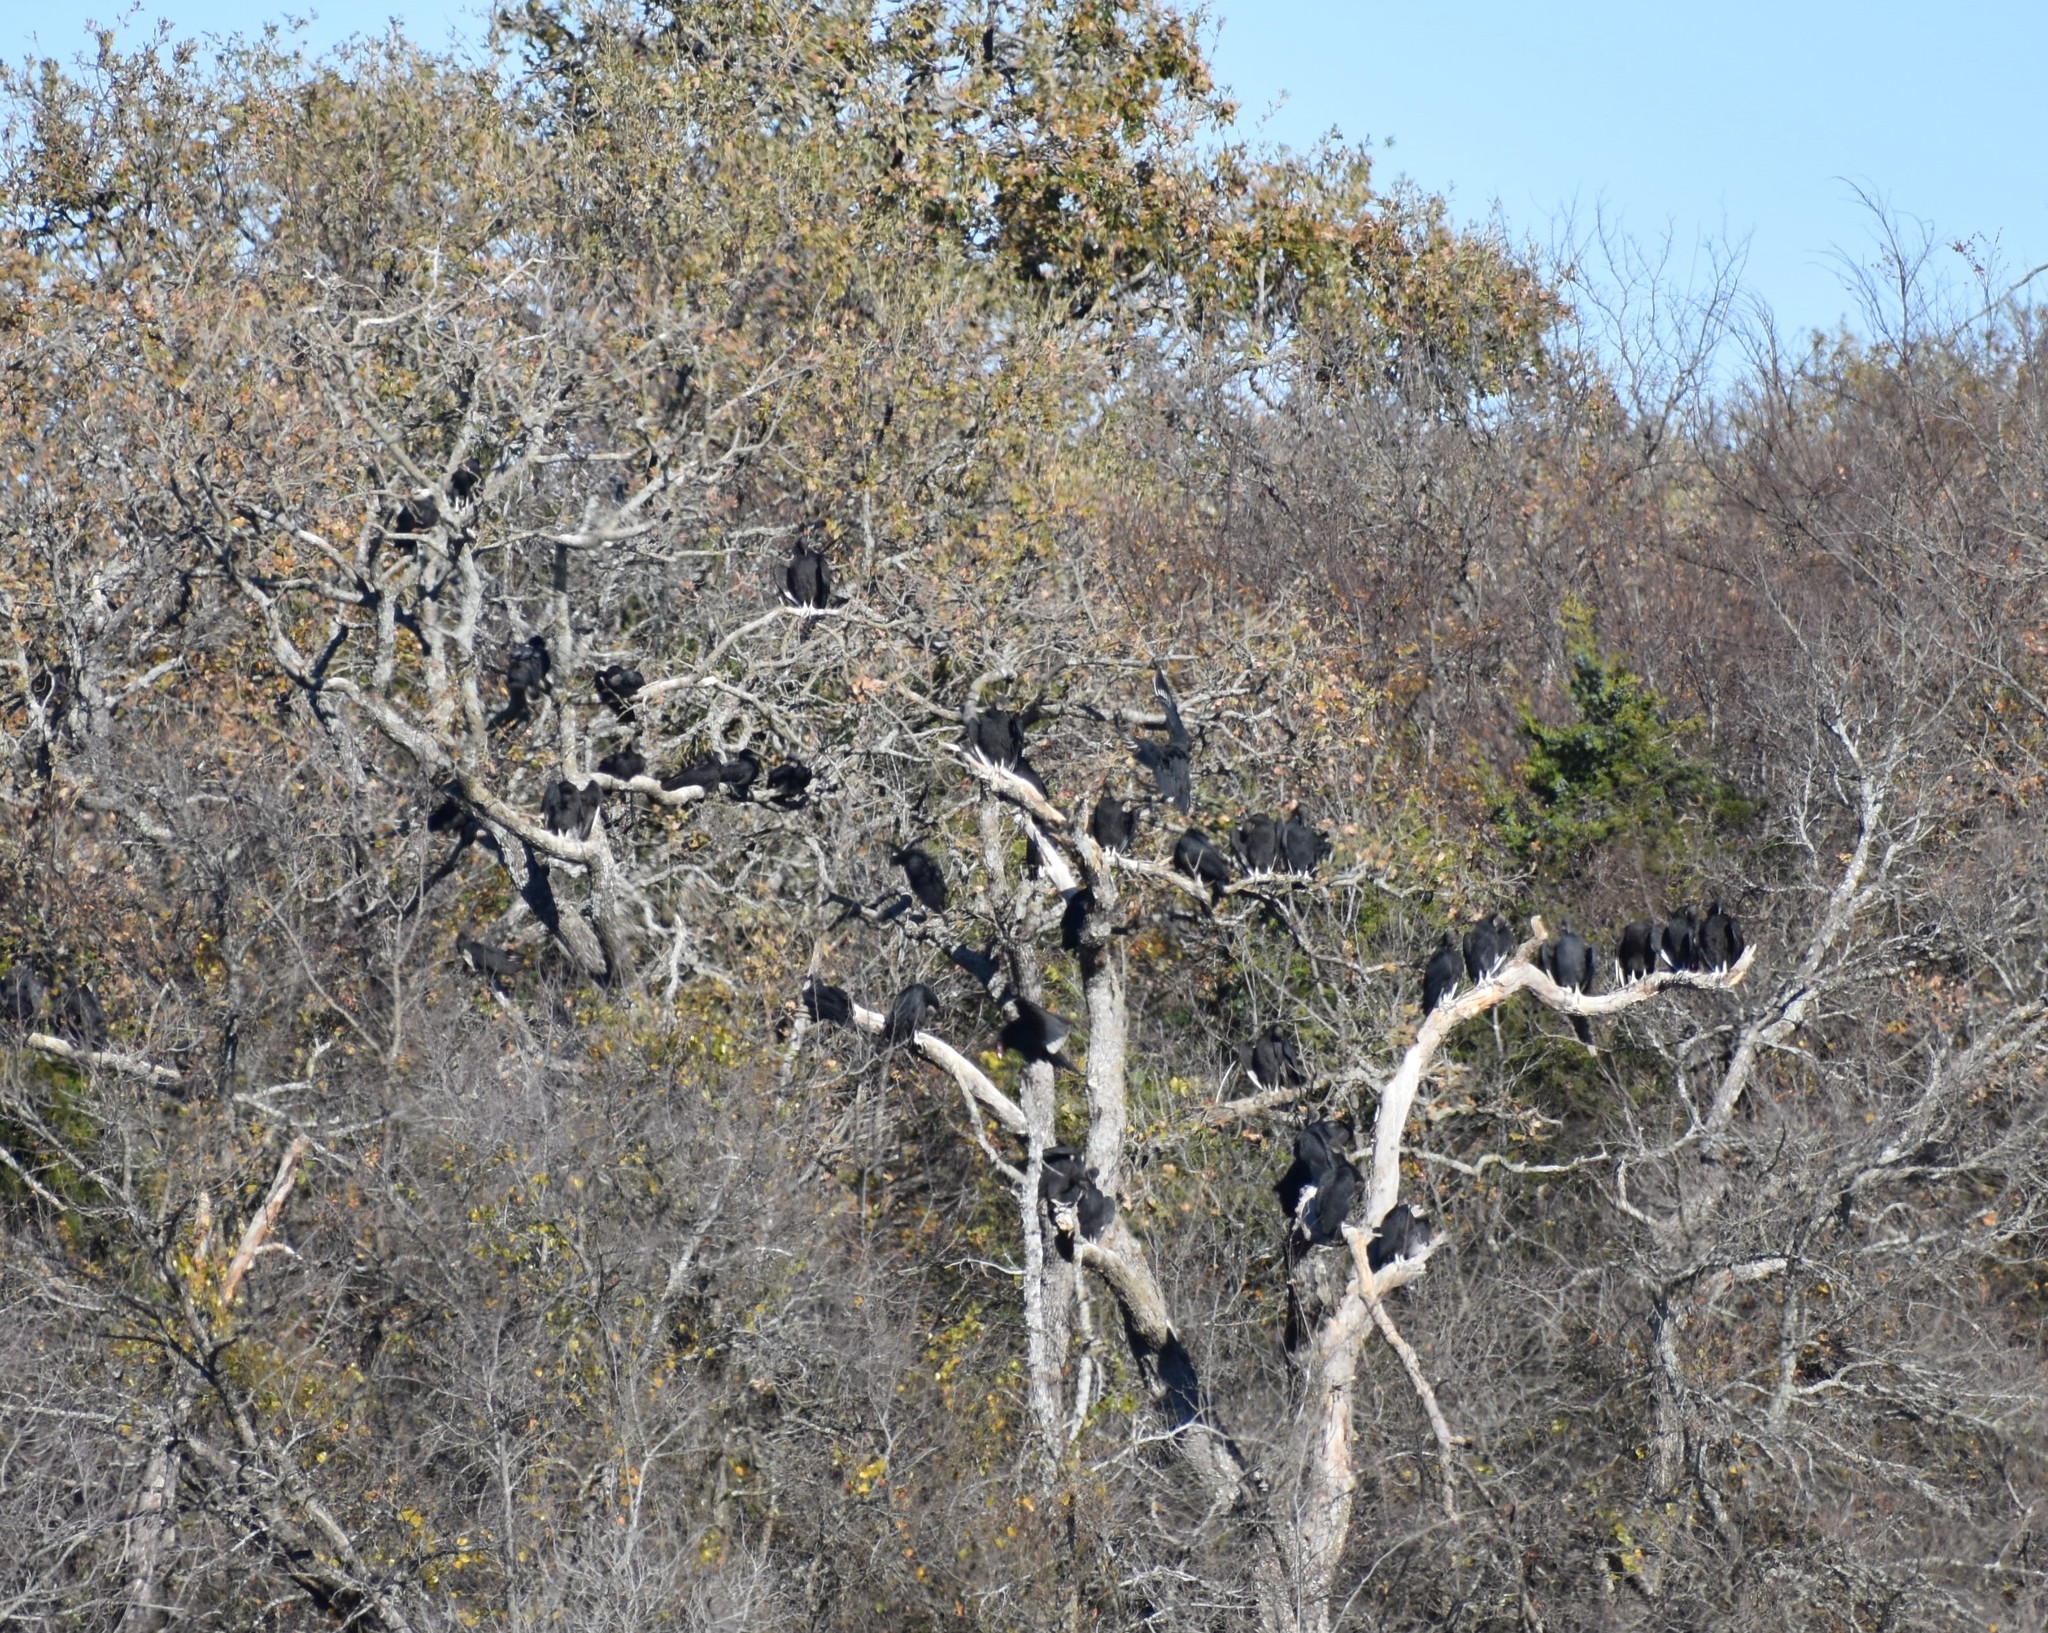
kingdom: Animalia
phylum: Chordata
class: Aves
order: Accipitriformes
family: Cathartidae
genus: Coragyps
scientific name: Coragyps atratus
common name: Black vulture
